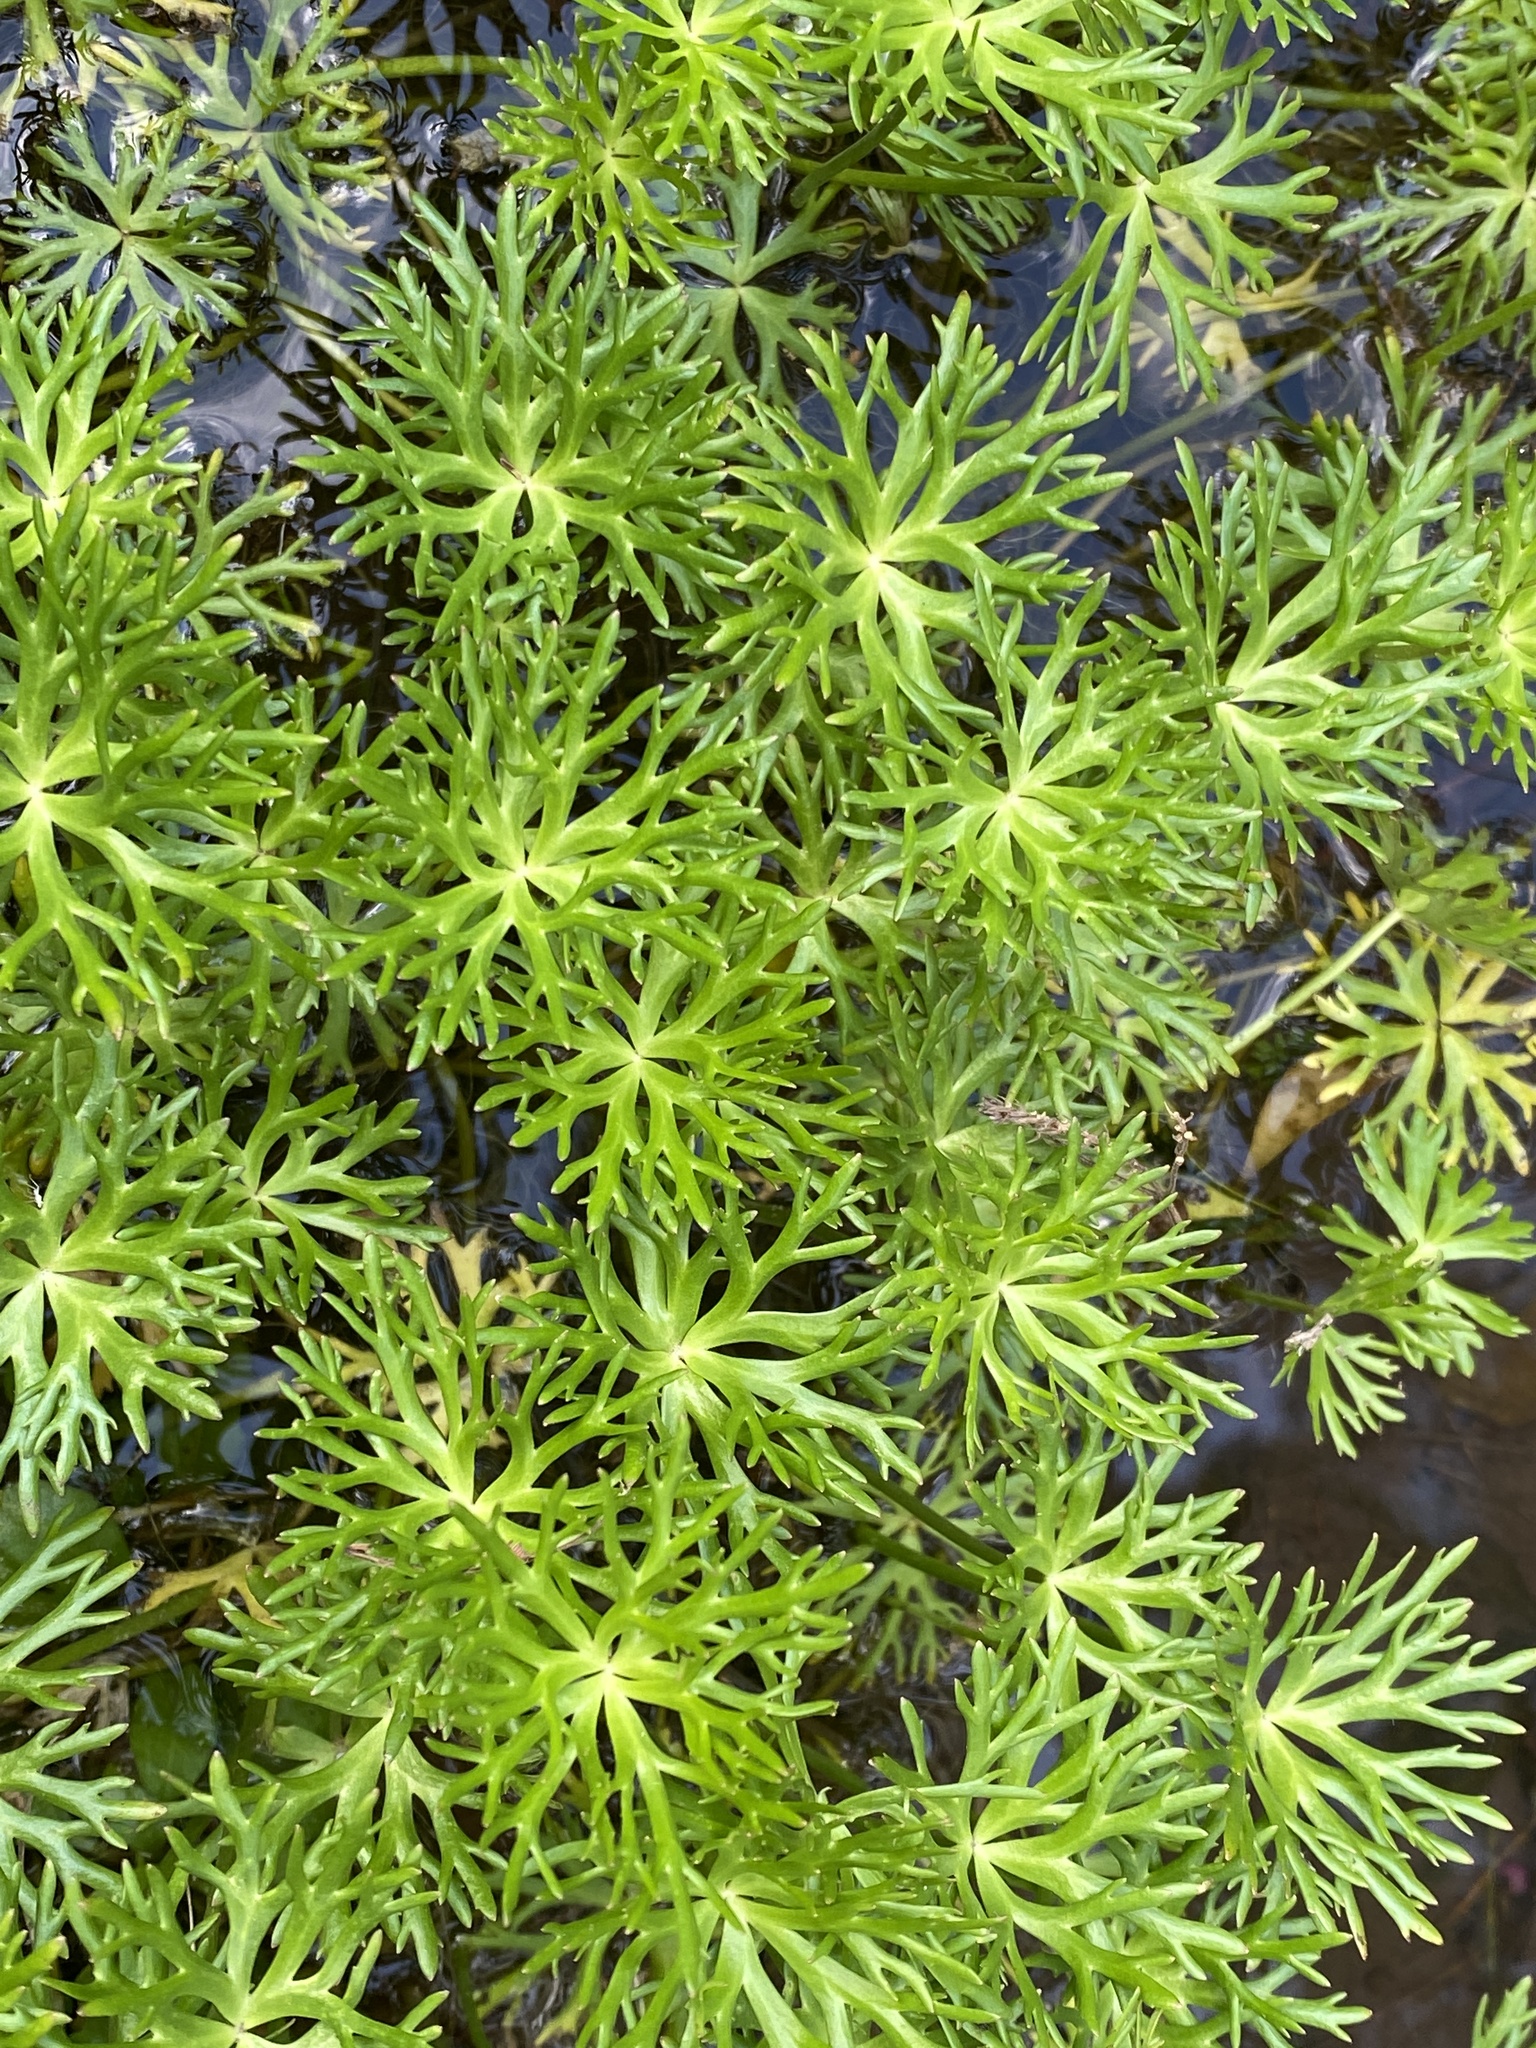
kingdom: Plantae
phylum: Tracheophyta
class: Magnoliopsida
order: Ranunculales
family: Ranunculaceae
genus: Ranunculus
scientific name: Ranunculus inundatus
